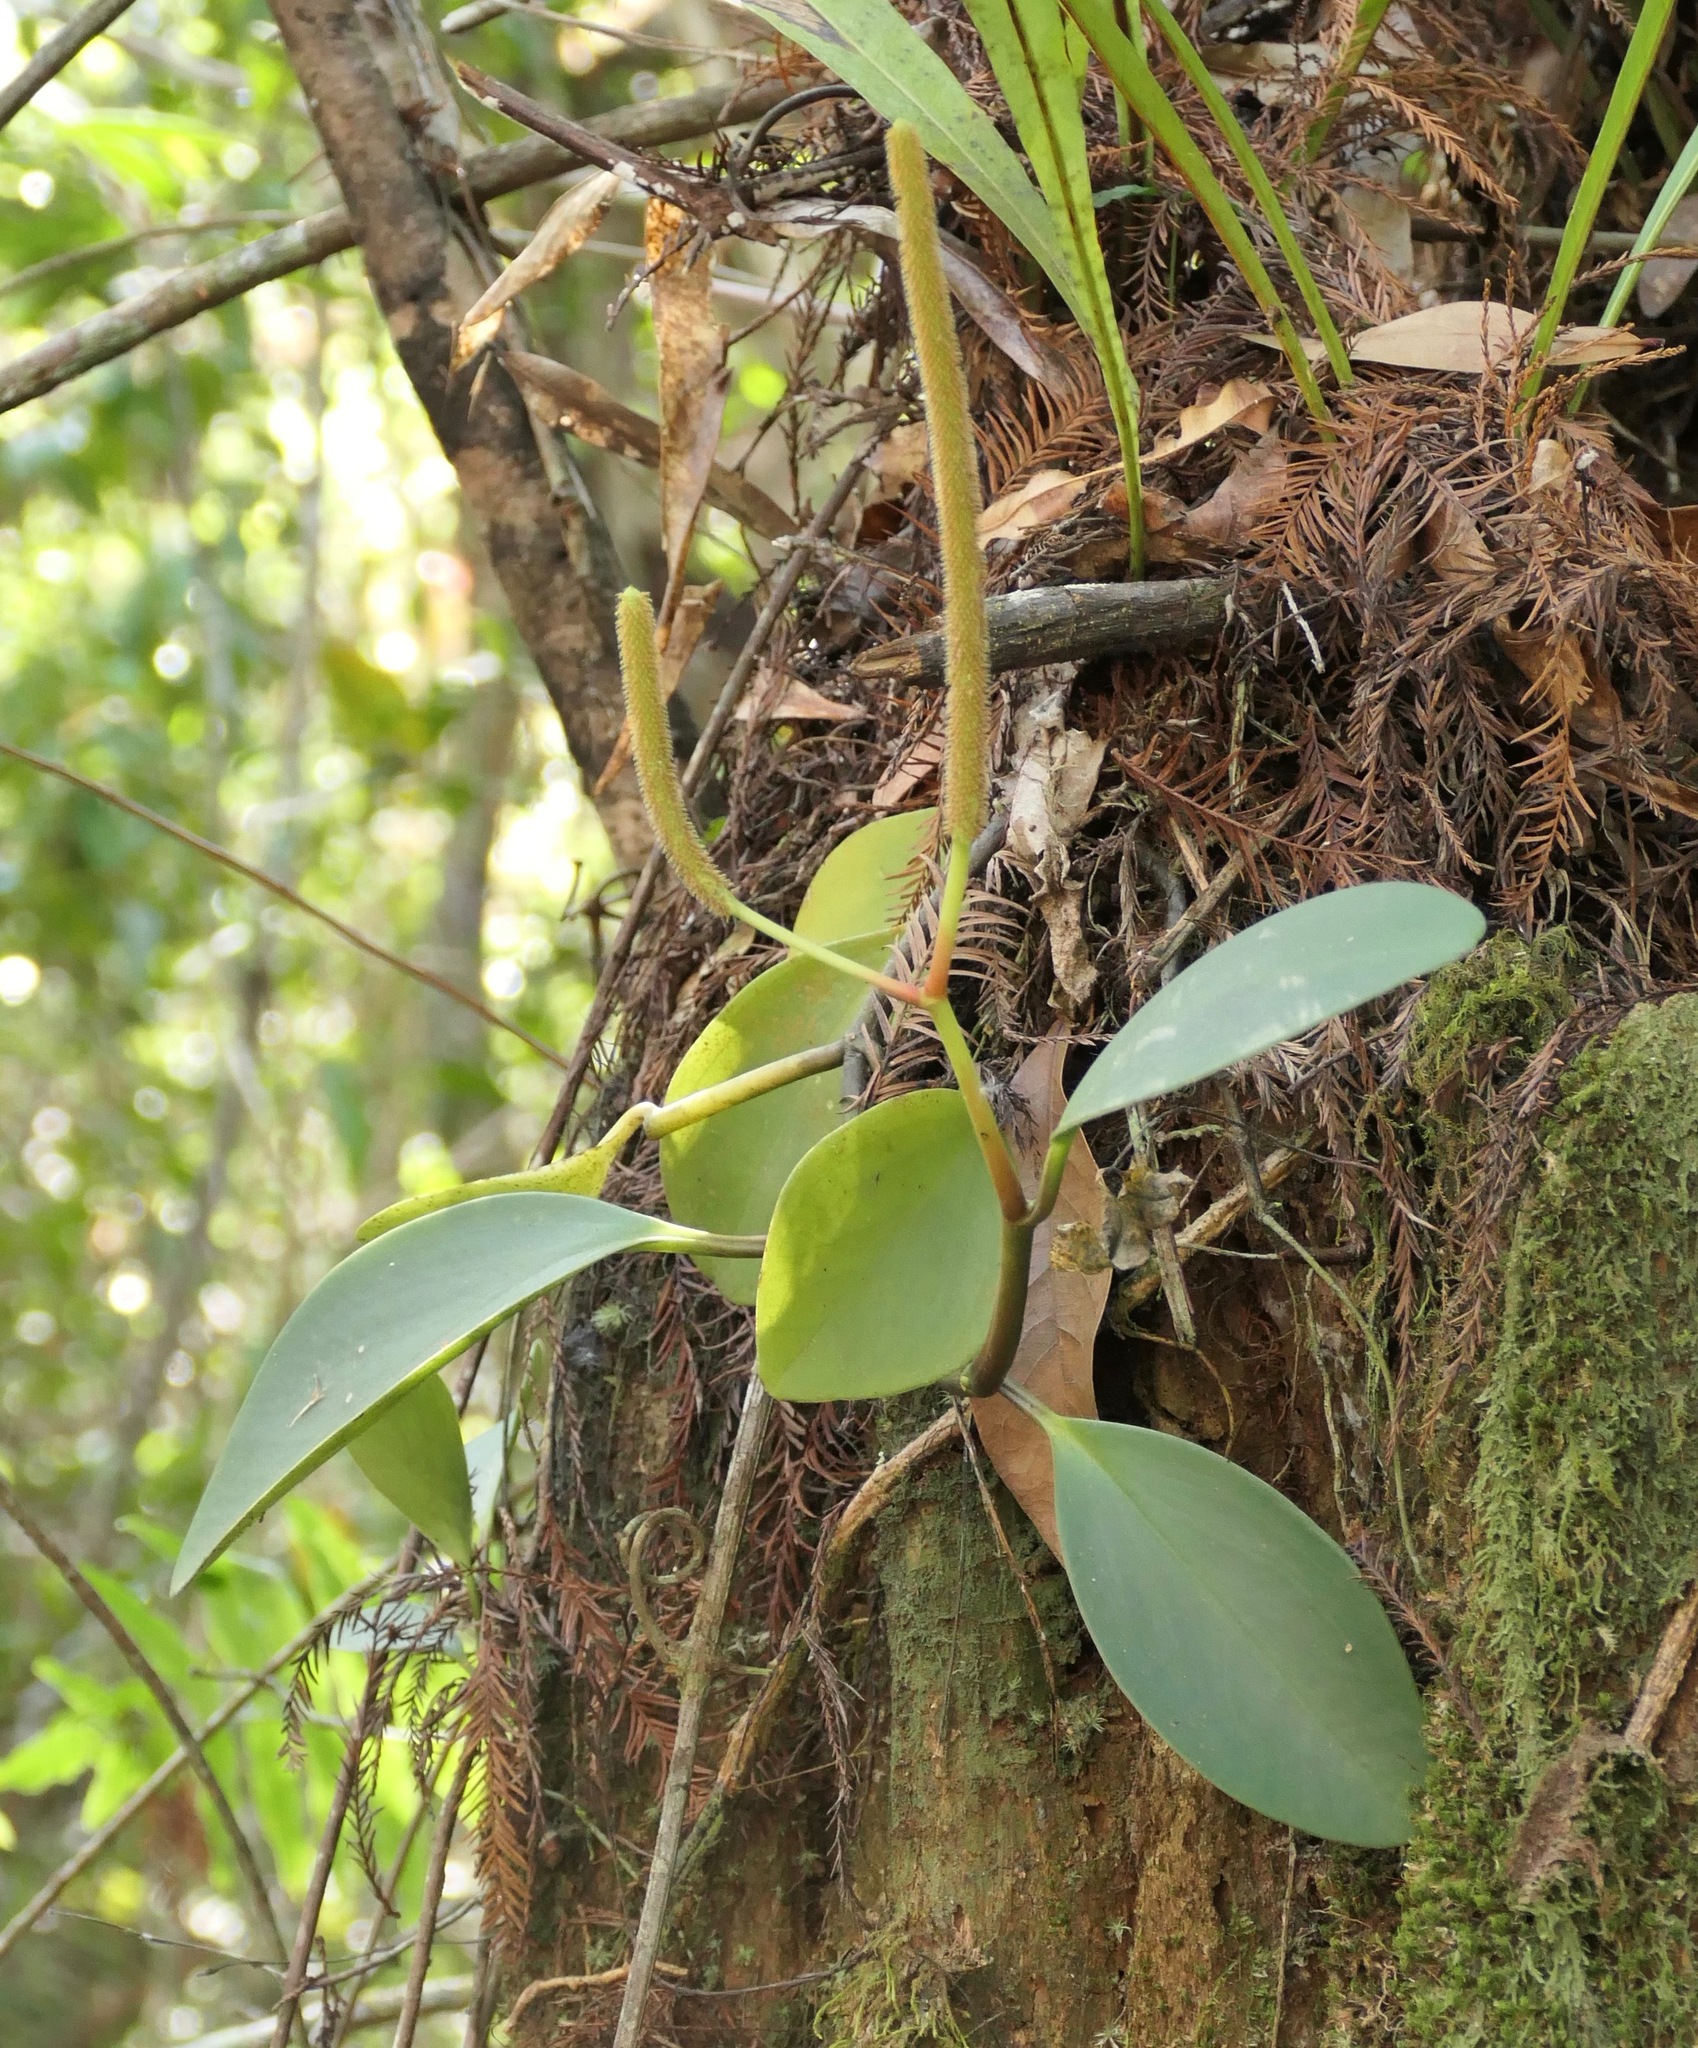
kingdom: Plantae
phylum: Tracheophyta
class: Magnoliopsida
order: Piperales
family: Piperaceae
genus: Peperomia
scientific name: Peperomia obtusifolia
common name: Baby rubberplant
